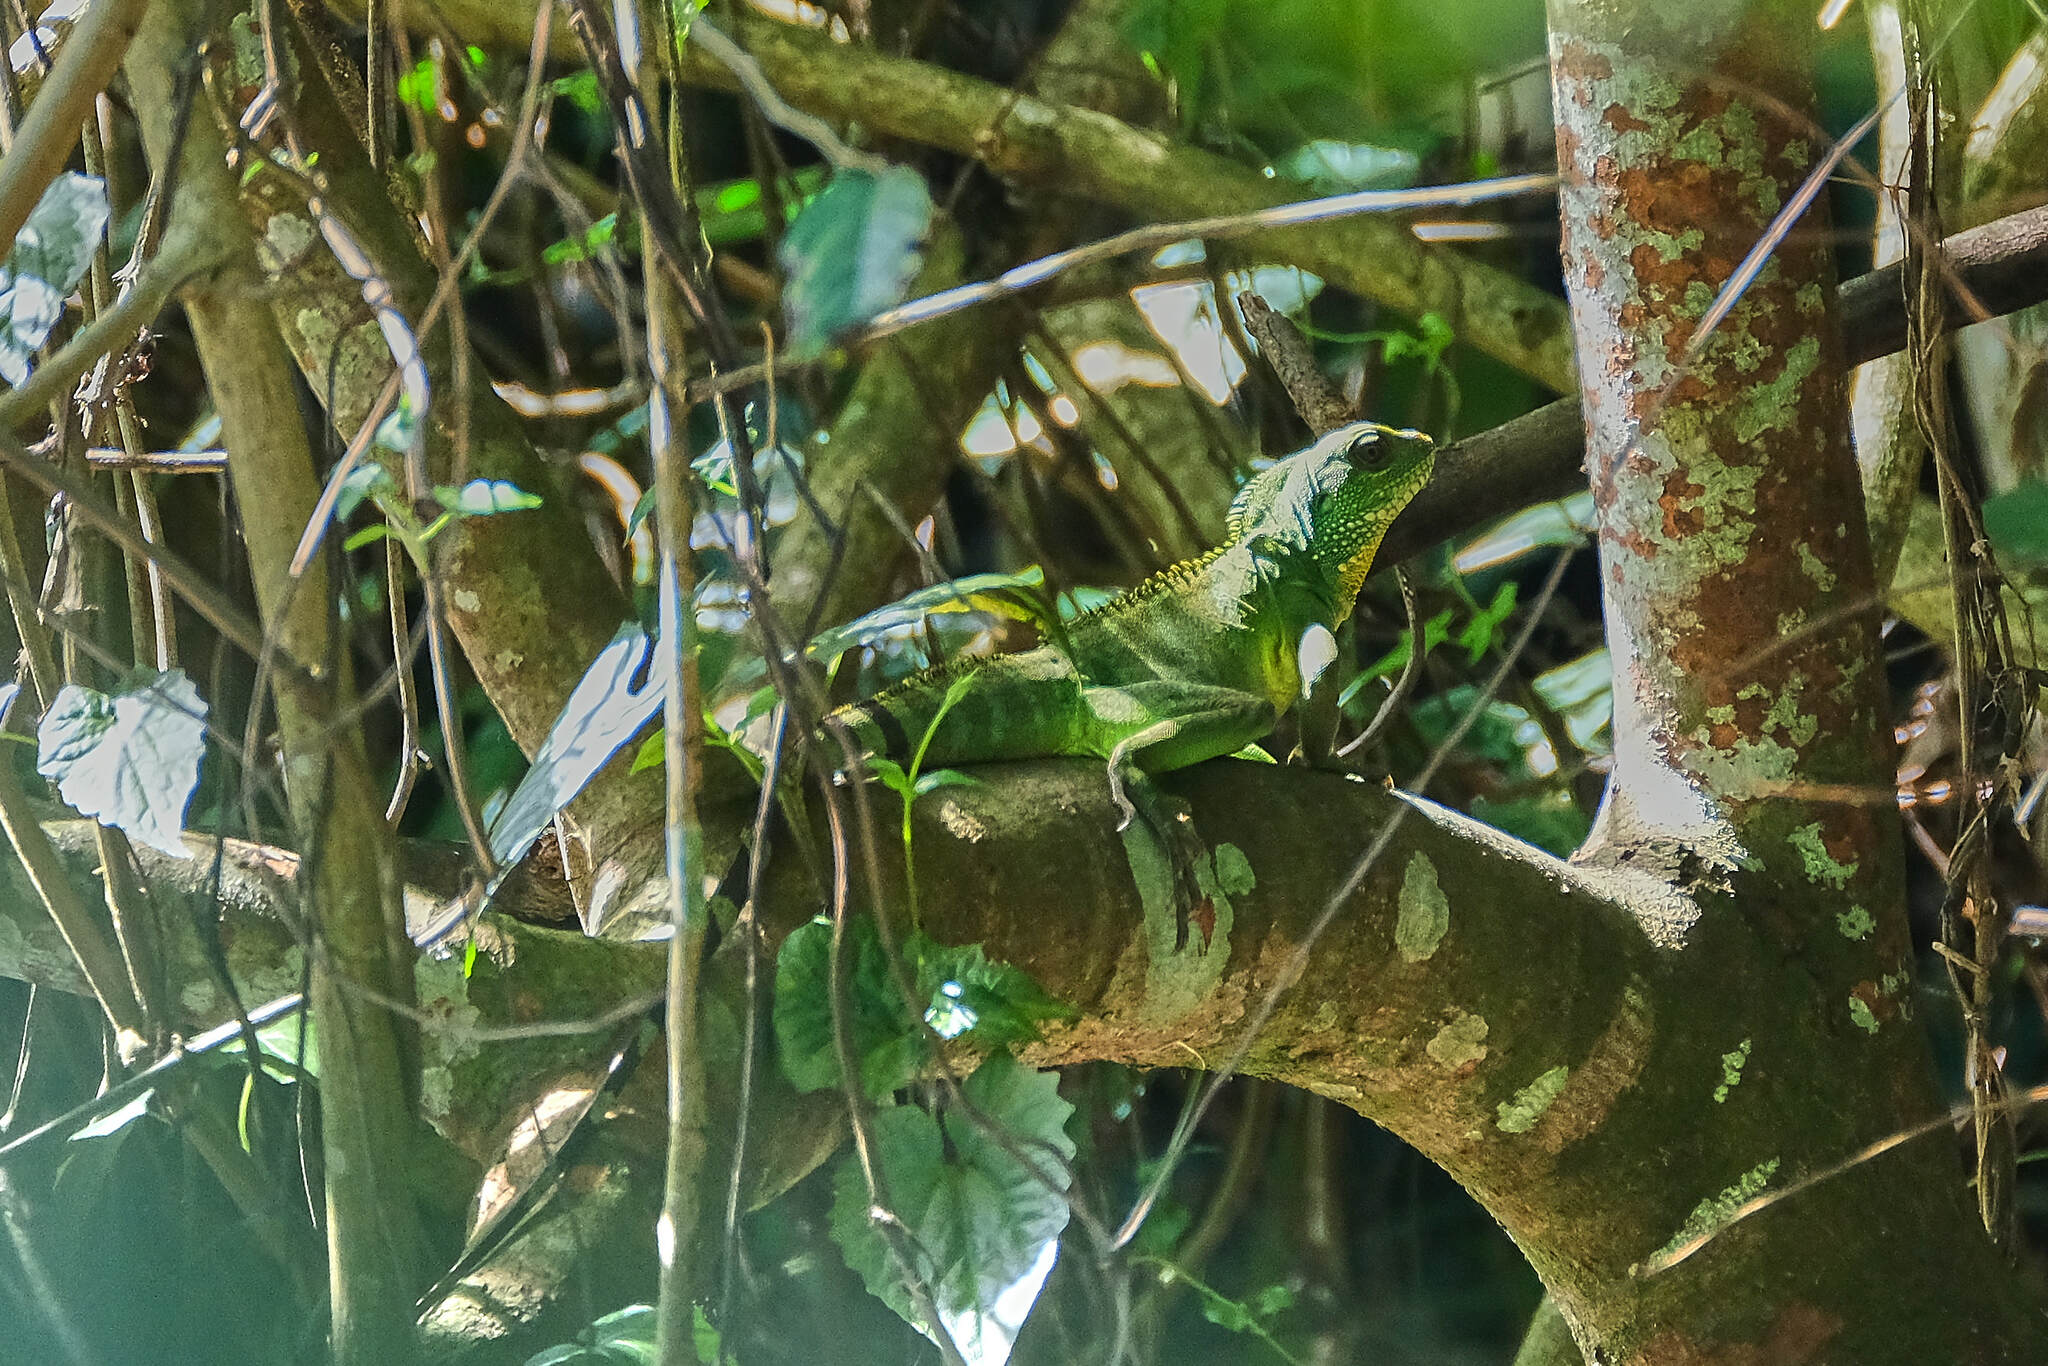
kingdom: Animalia
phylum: Chordata
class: Squamata
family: Agamidae
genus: Physignathus
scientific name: Physignathus cocincinus
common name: Asian water dragon
